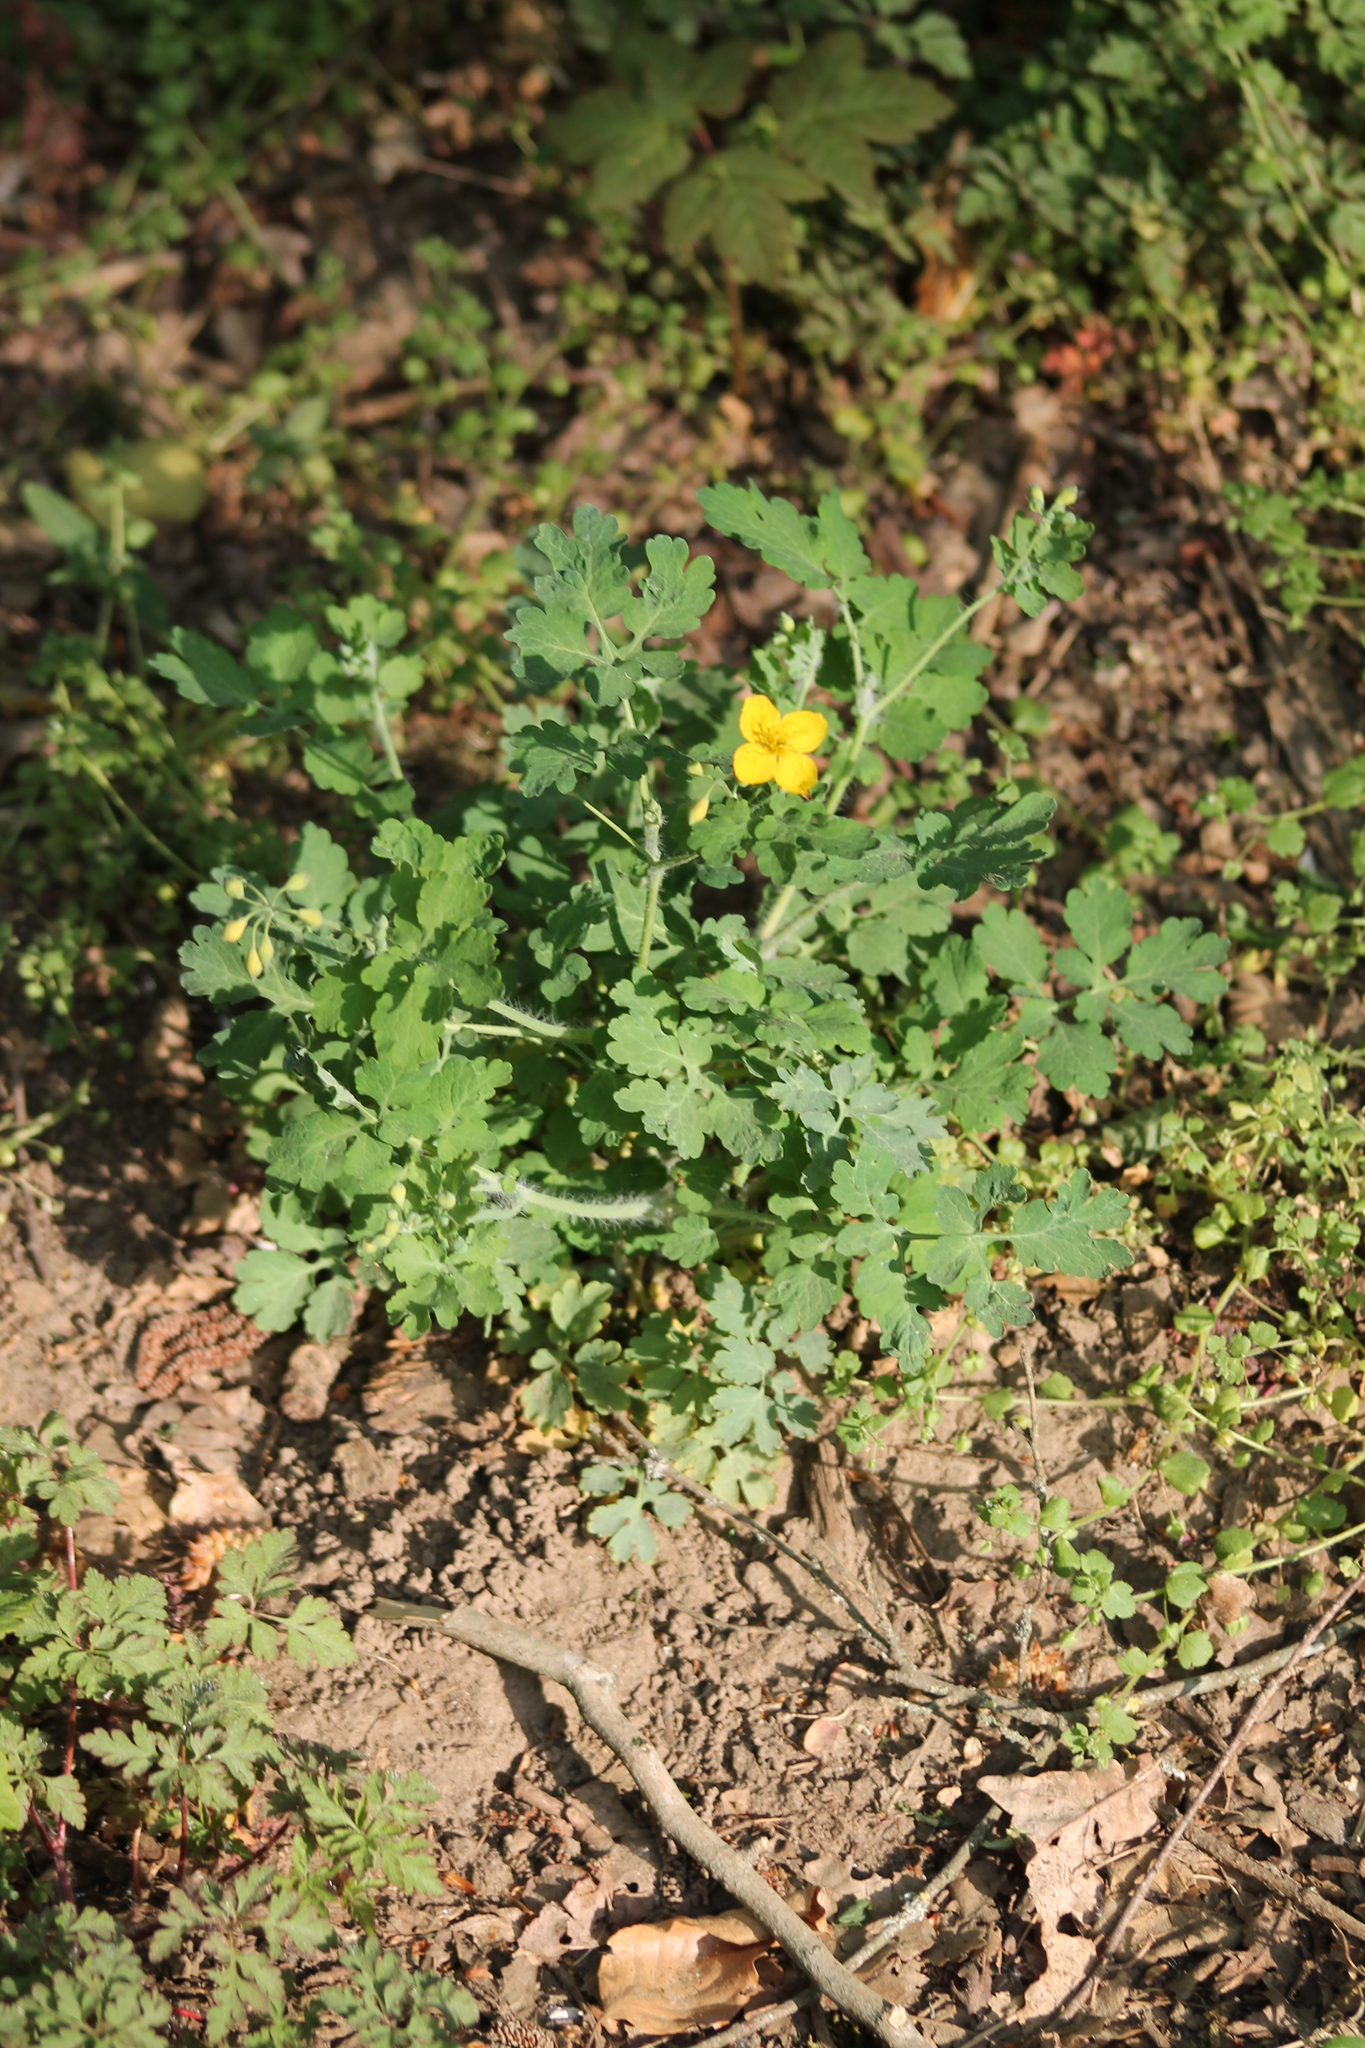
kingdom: Plantae
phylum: Tracheophyta
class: Magnoliopsida
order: Ranunculales
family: Papaveraceae
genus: Chelidonium
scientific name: Chelidonium majus
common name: Greater celandine
